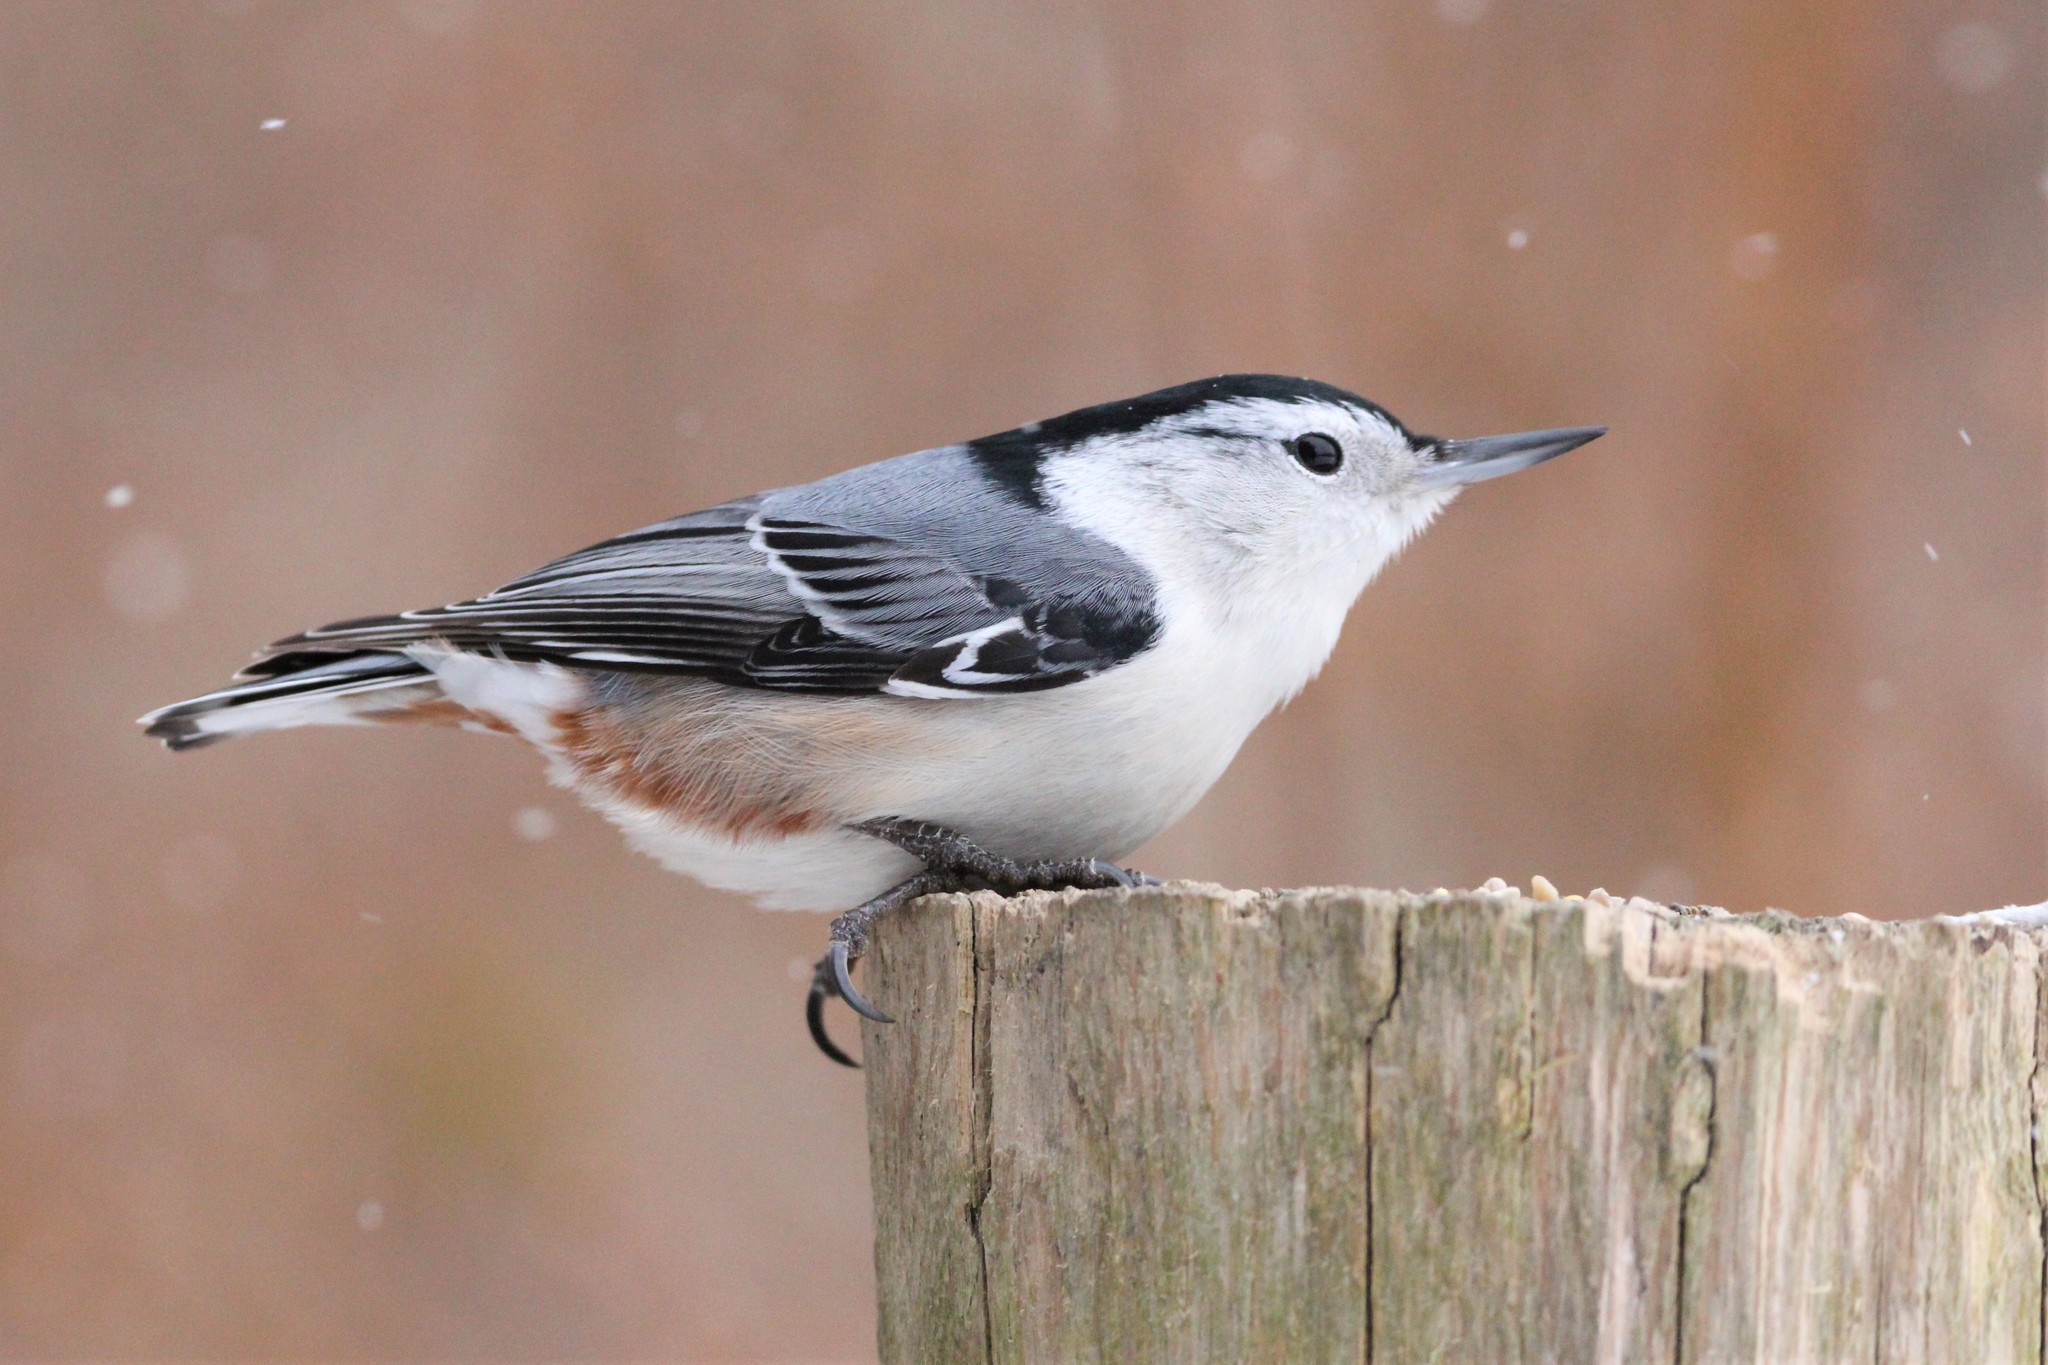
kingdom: Animalia
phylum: Chordata
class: Aves
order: Passeriformes
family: Sittidae
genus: Sitta
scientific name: Sitta carolinensis
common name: White-breasted nuthatch
